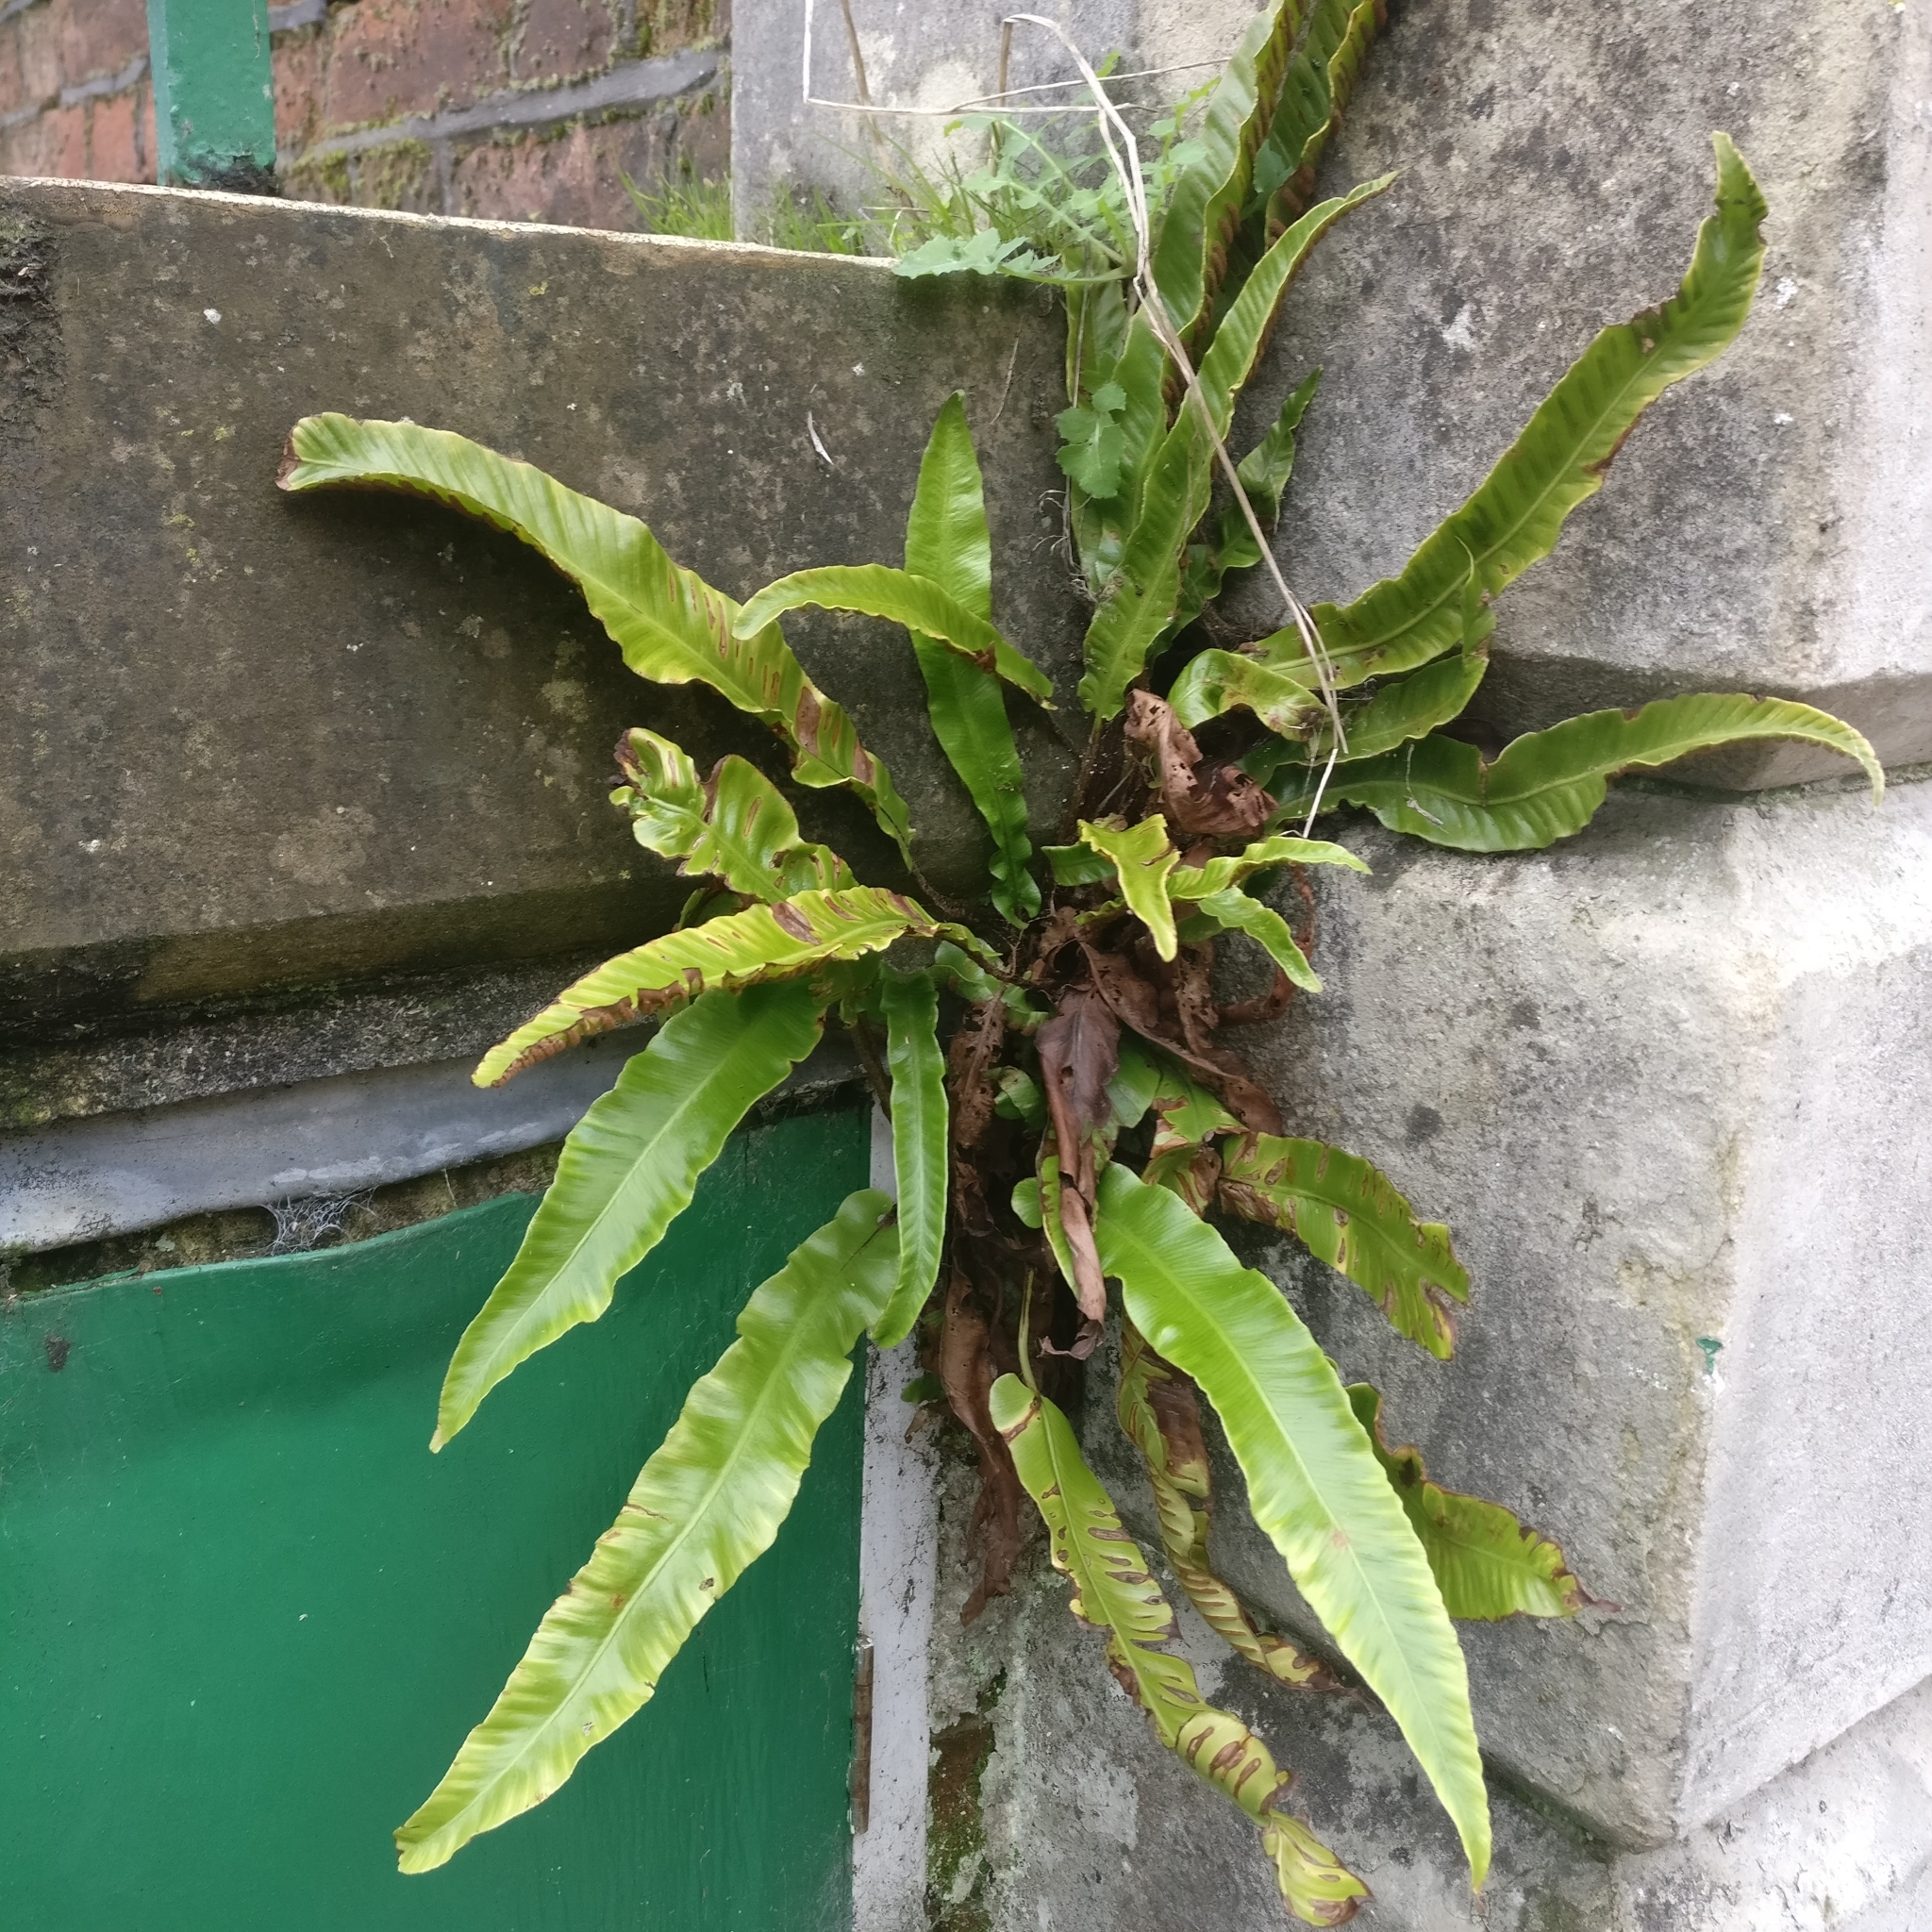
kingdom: Plantae
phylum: Tracheophyta
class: Polypodiopsida
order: Polypodiales
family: Aspleniaceae
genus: Asplenium
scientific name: Asplenium scolopendrium
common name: Hart's-tongue fern
